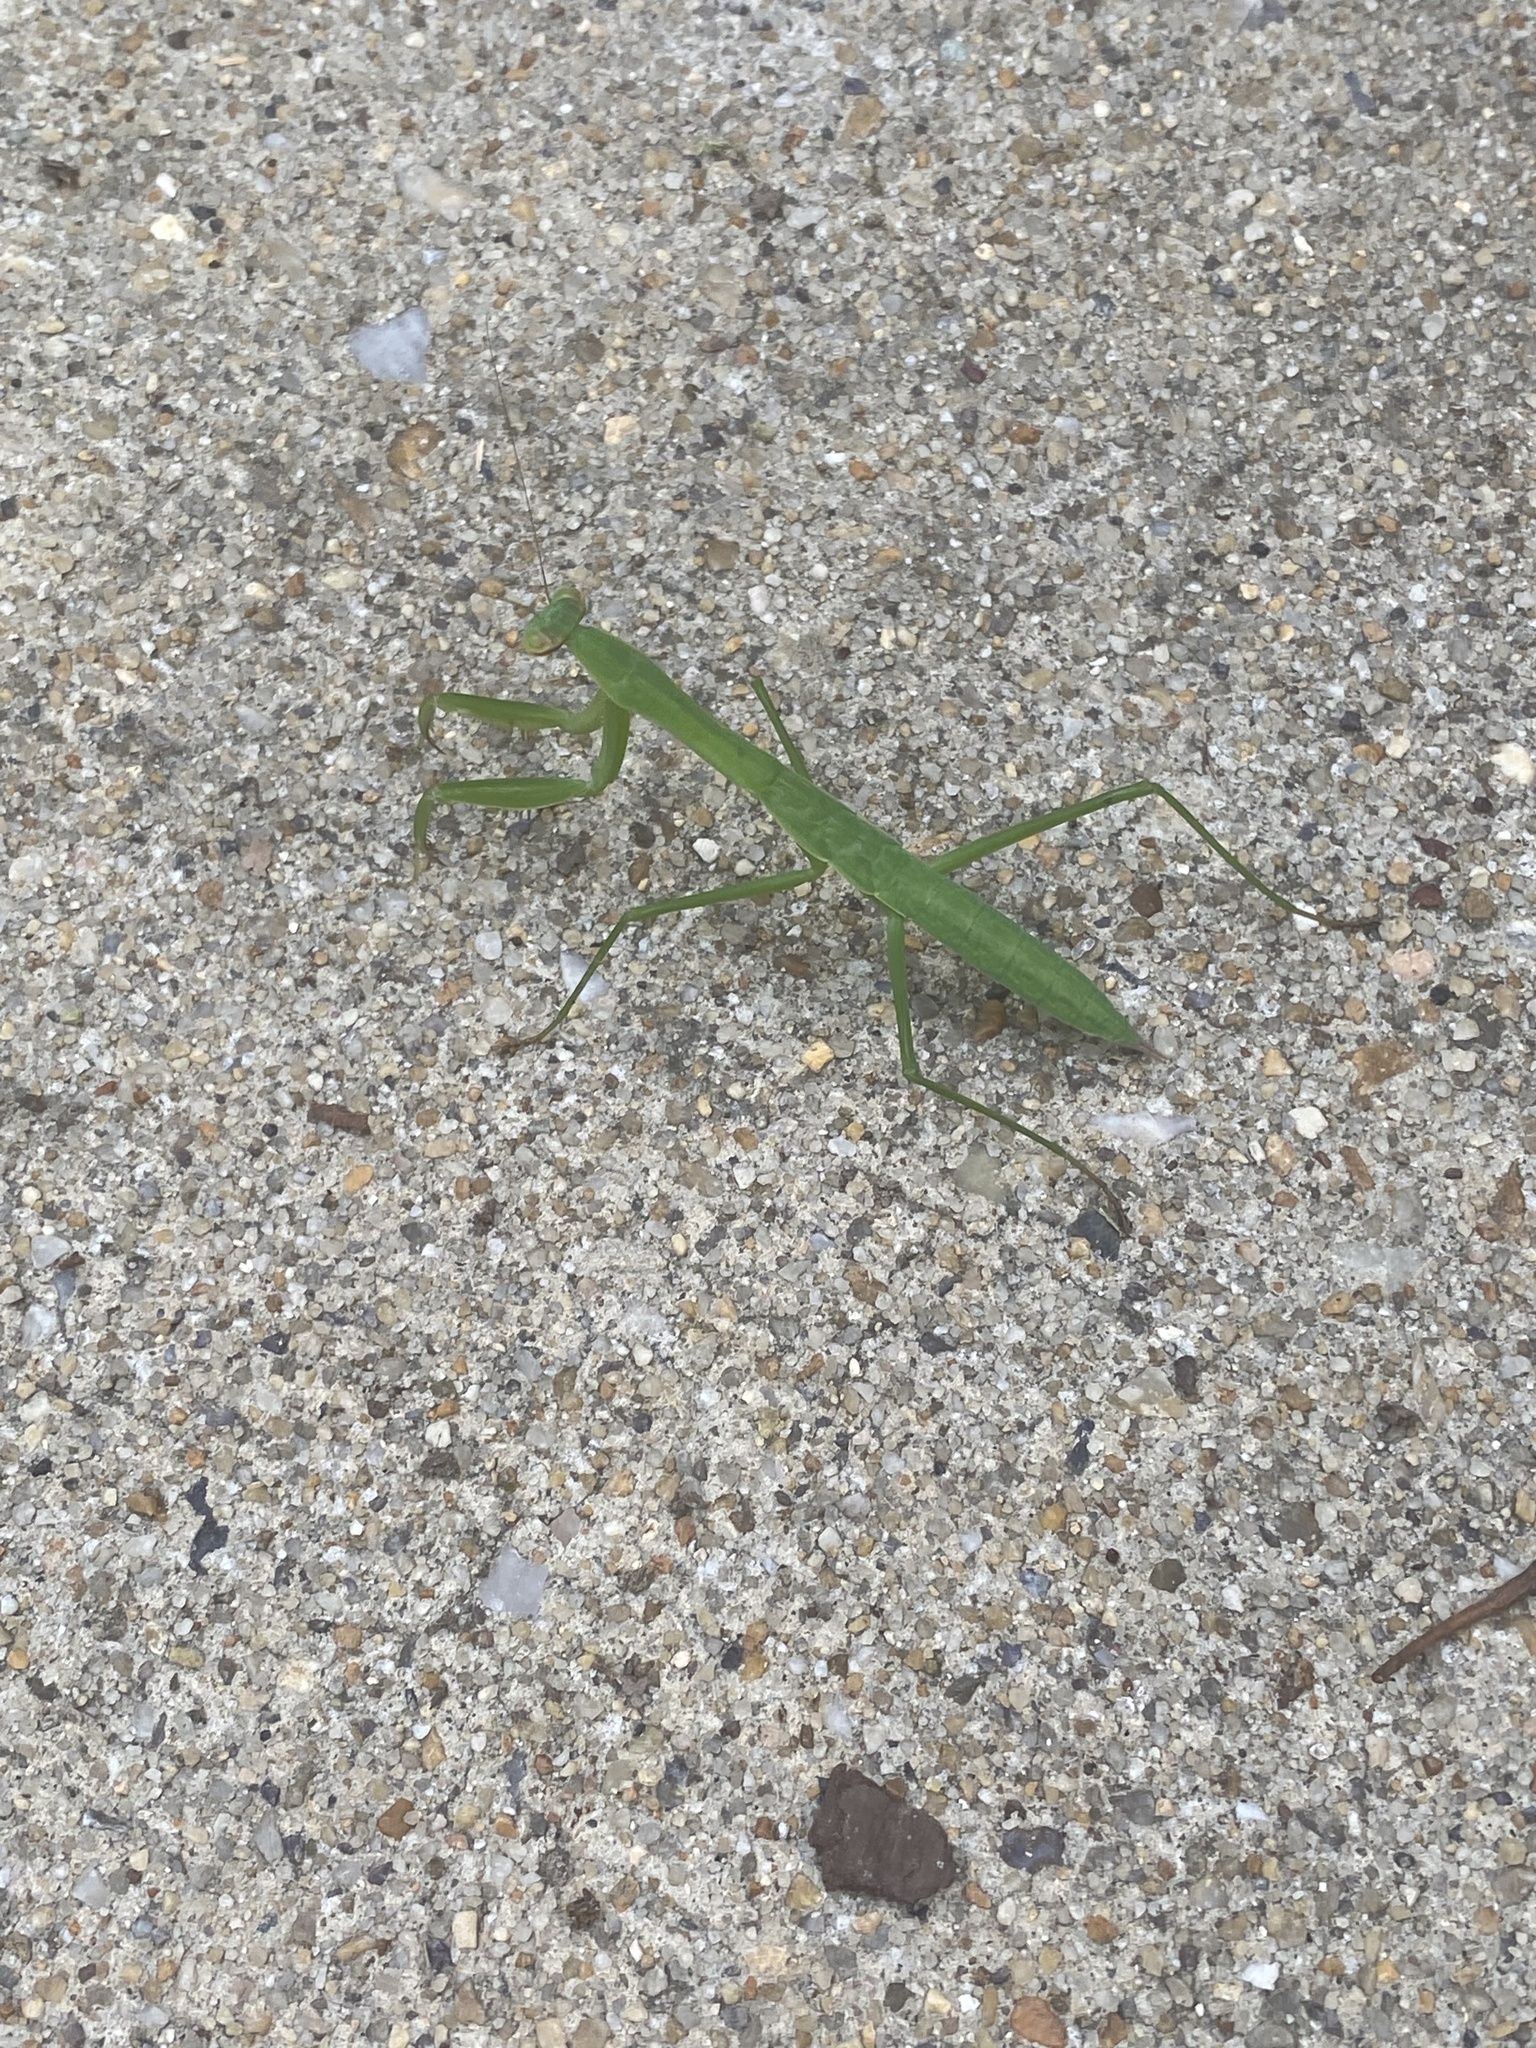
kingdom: Animalia
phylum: Arthropoda
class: Insecta
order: Mantodea
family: Mantidae
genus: Tenodera
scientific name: Tenodera sinensis
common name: Chinese mantis
